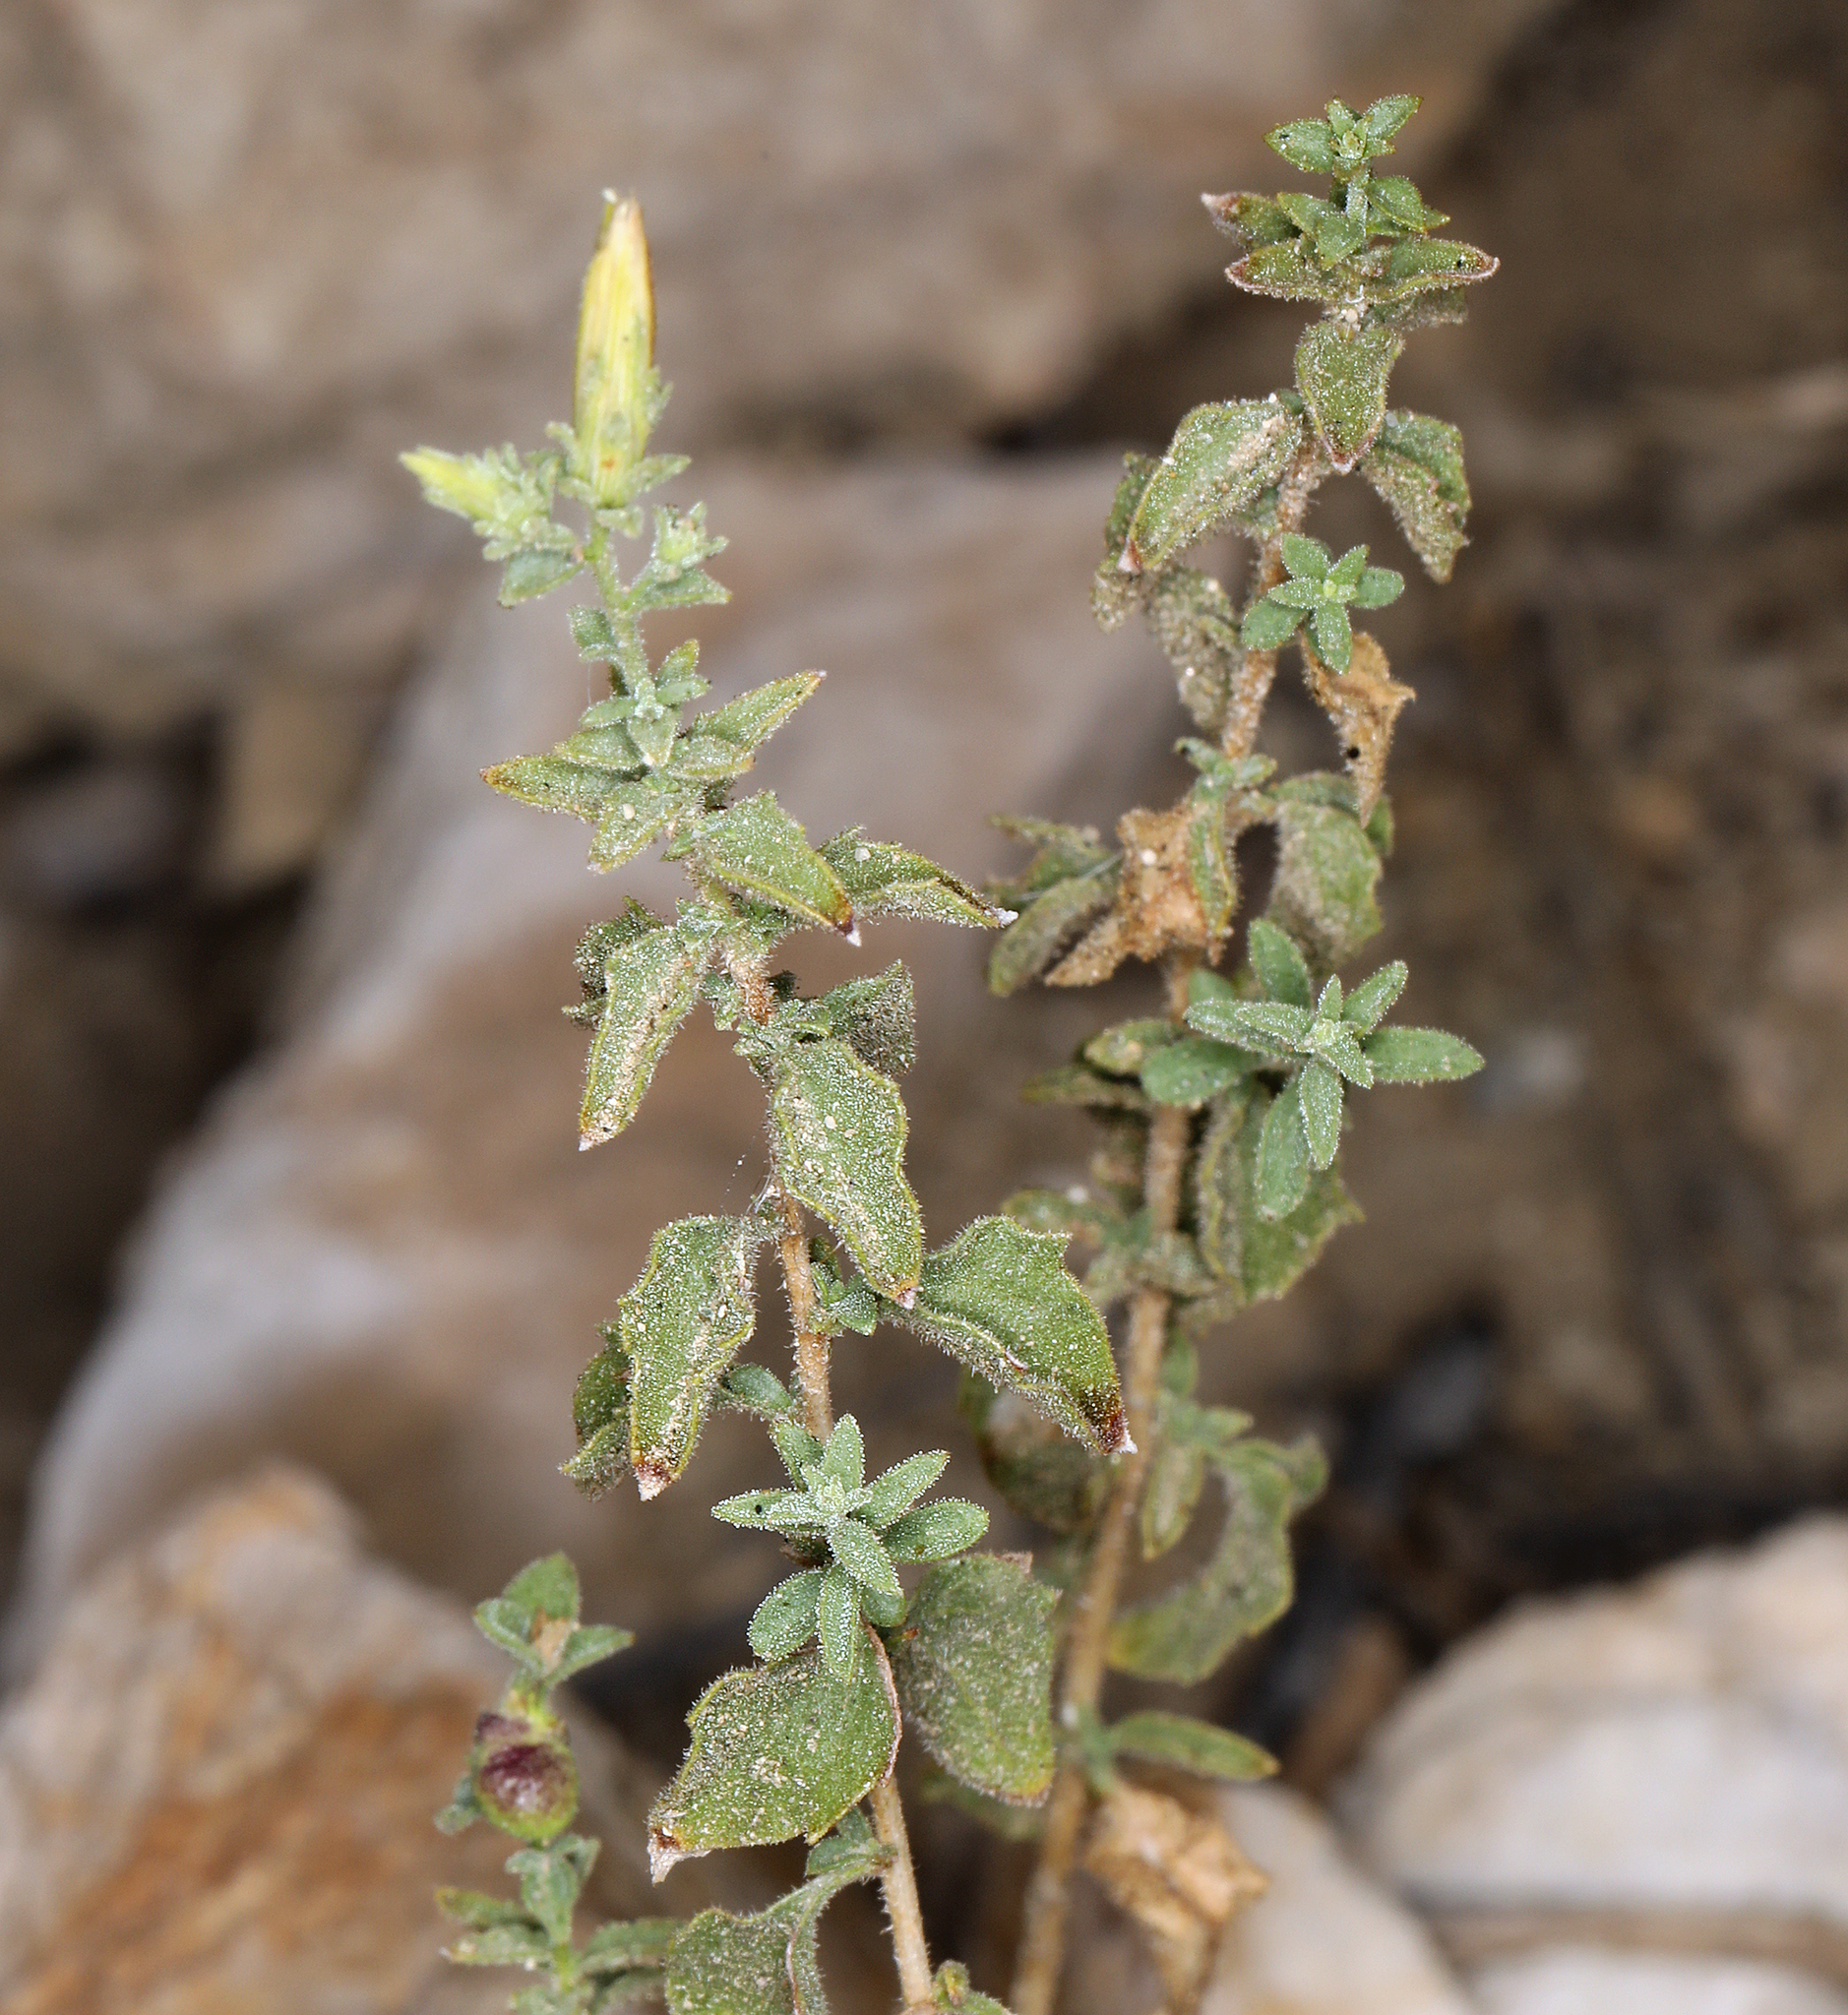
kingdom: Plantae
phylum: Tracheophyta
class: Magnoliopsida
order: Asterales
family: Asteraceae
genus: Brickellia
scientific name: Brickellia microphylla
